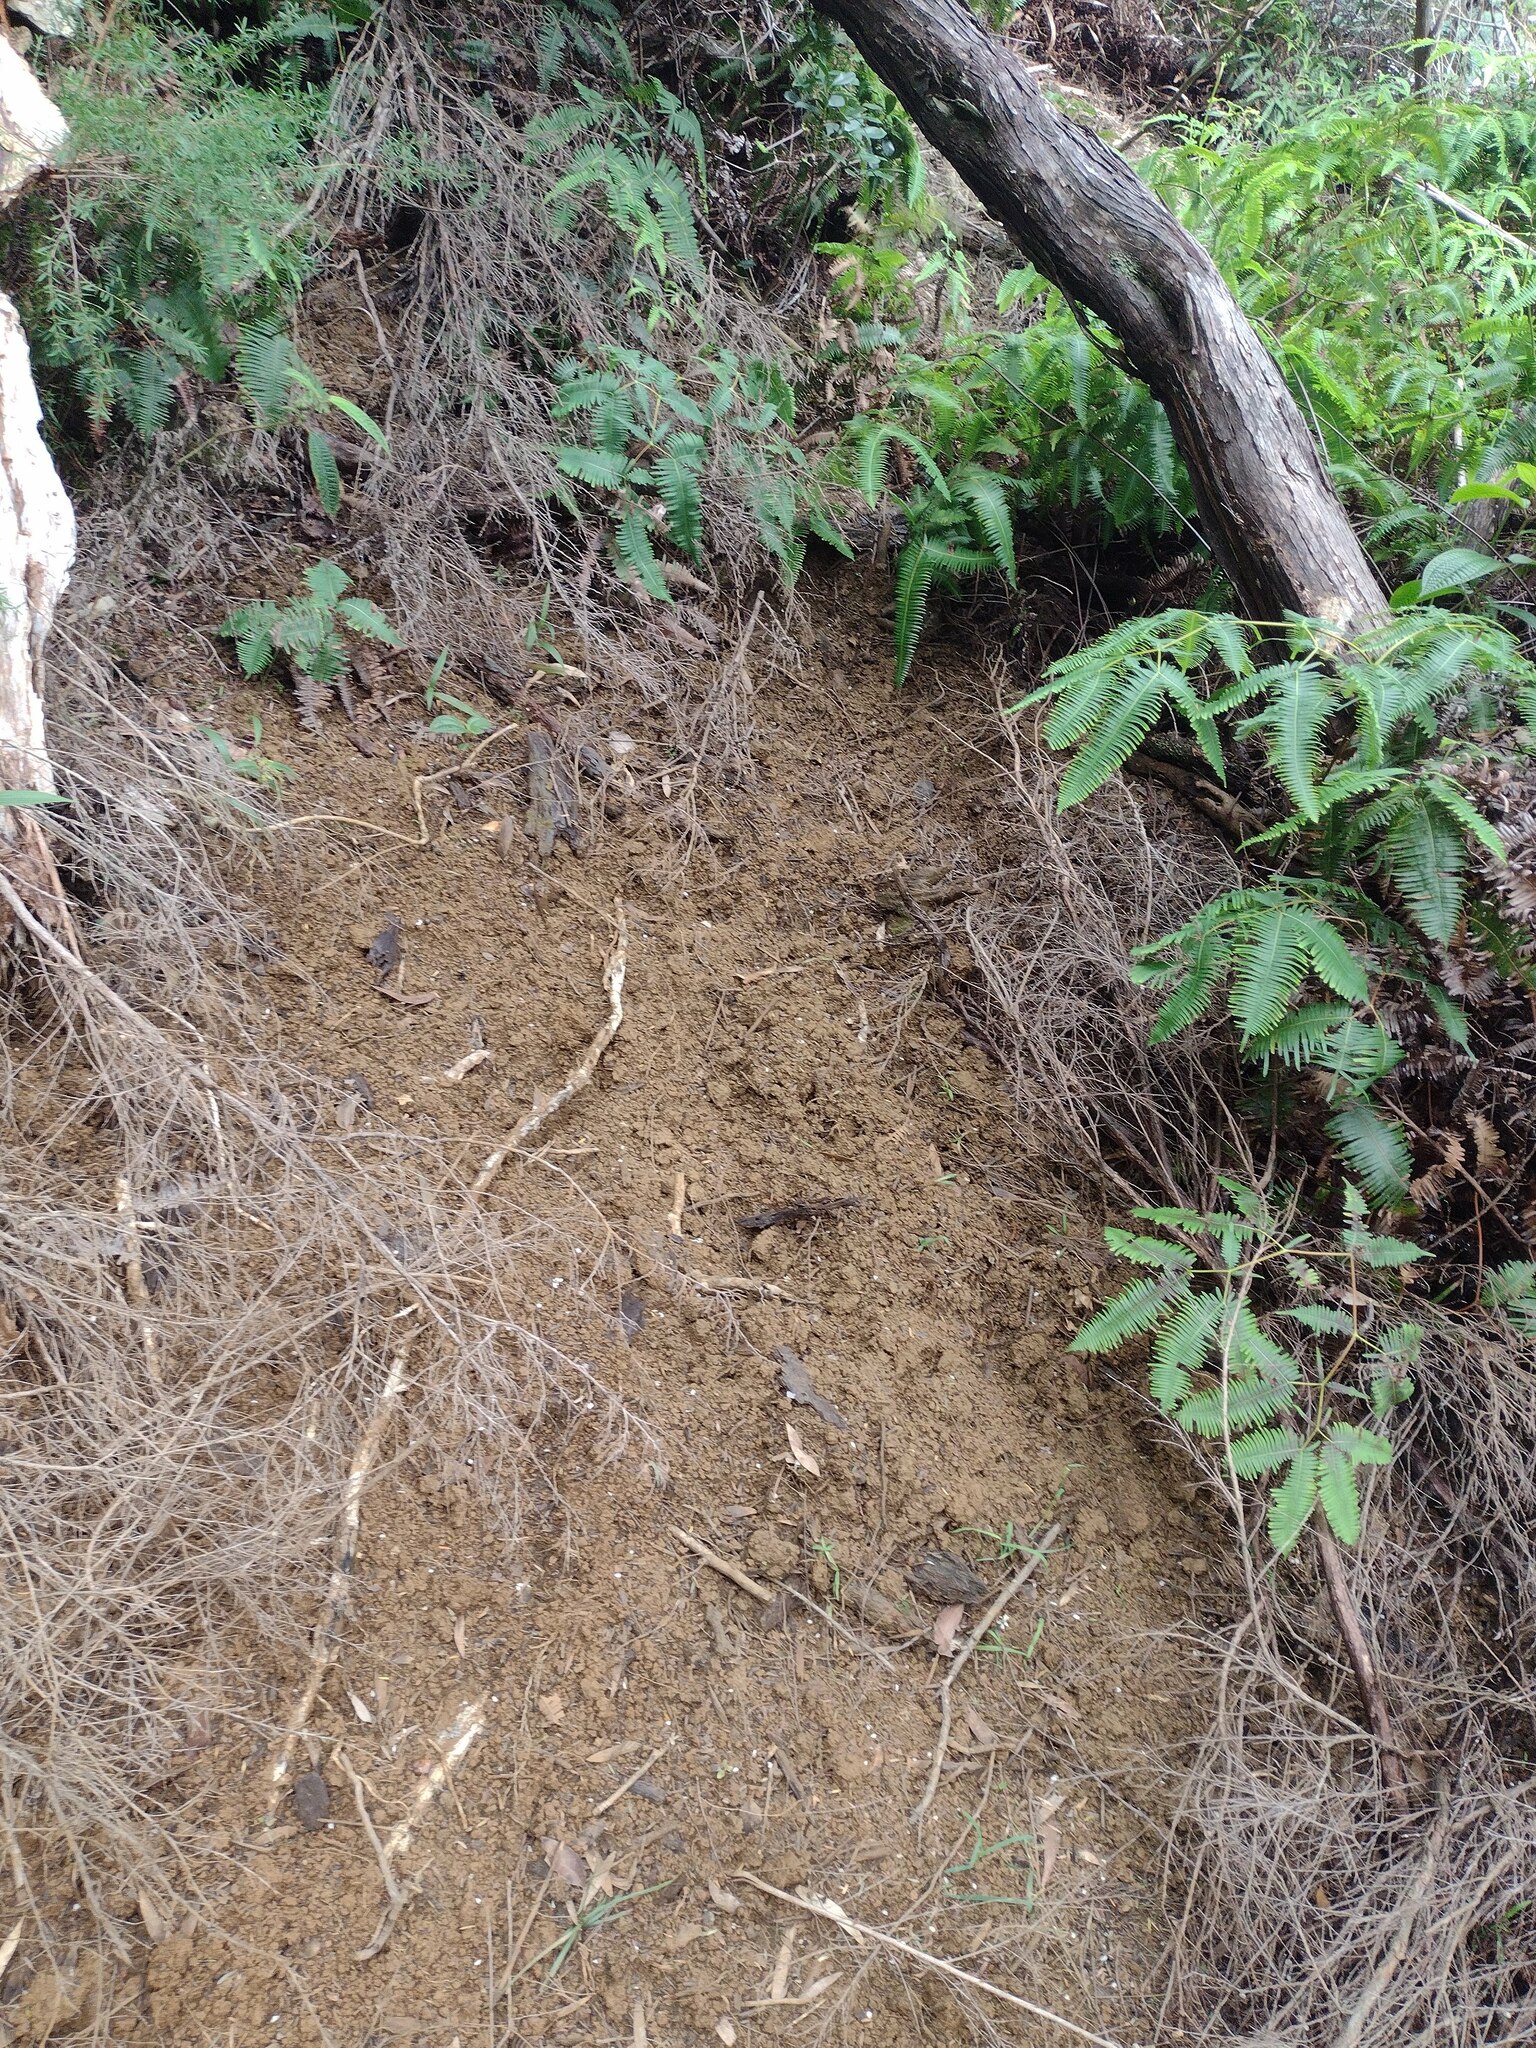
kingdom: Animalia
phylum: Chordata
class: Mammalia
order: Artiodactyla
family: Suidae
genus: Sus
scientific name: Sus scrofa
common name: Wild boar
